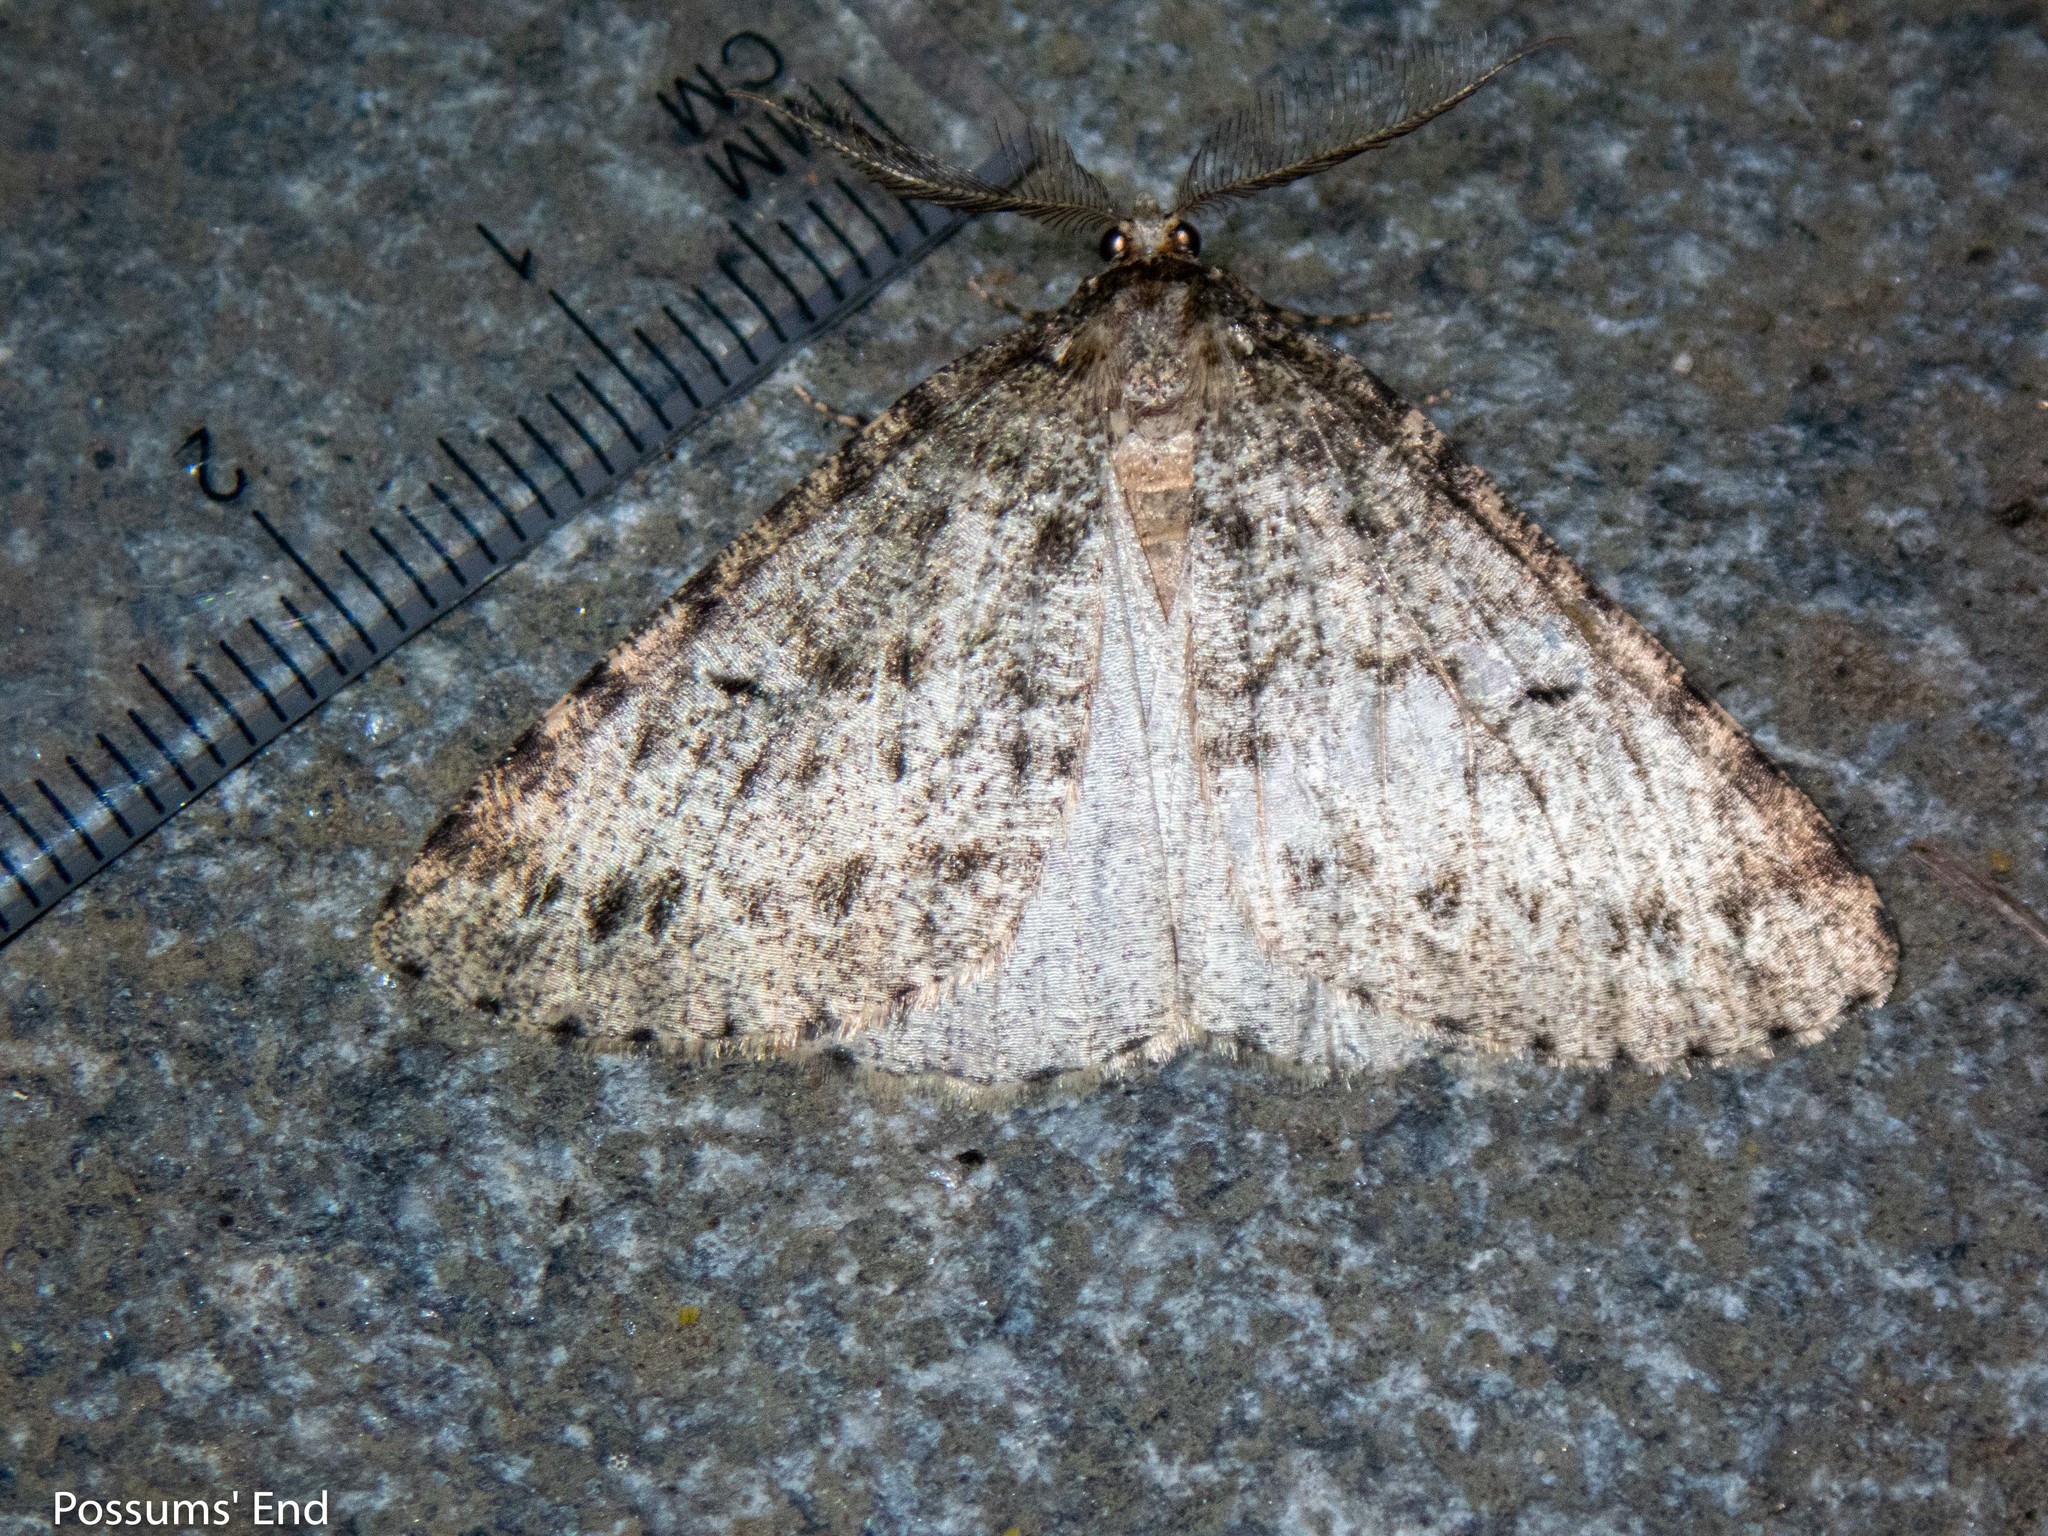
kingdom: Animalia
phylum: Arthropoda
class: Insecta
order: Lepidoptera
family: Geometridae
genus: Pseudocoremia
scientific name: Pseudocoremia terrena
